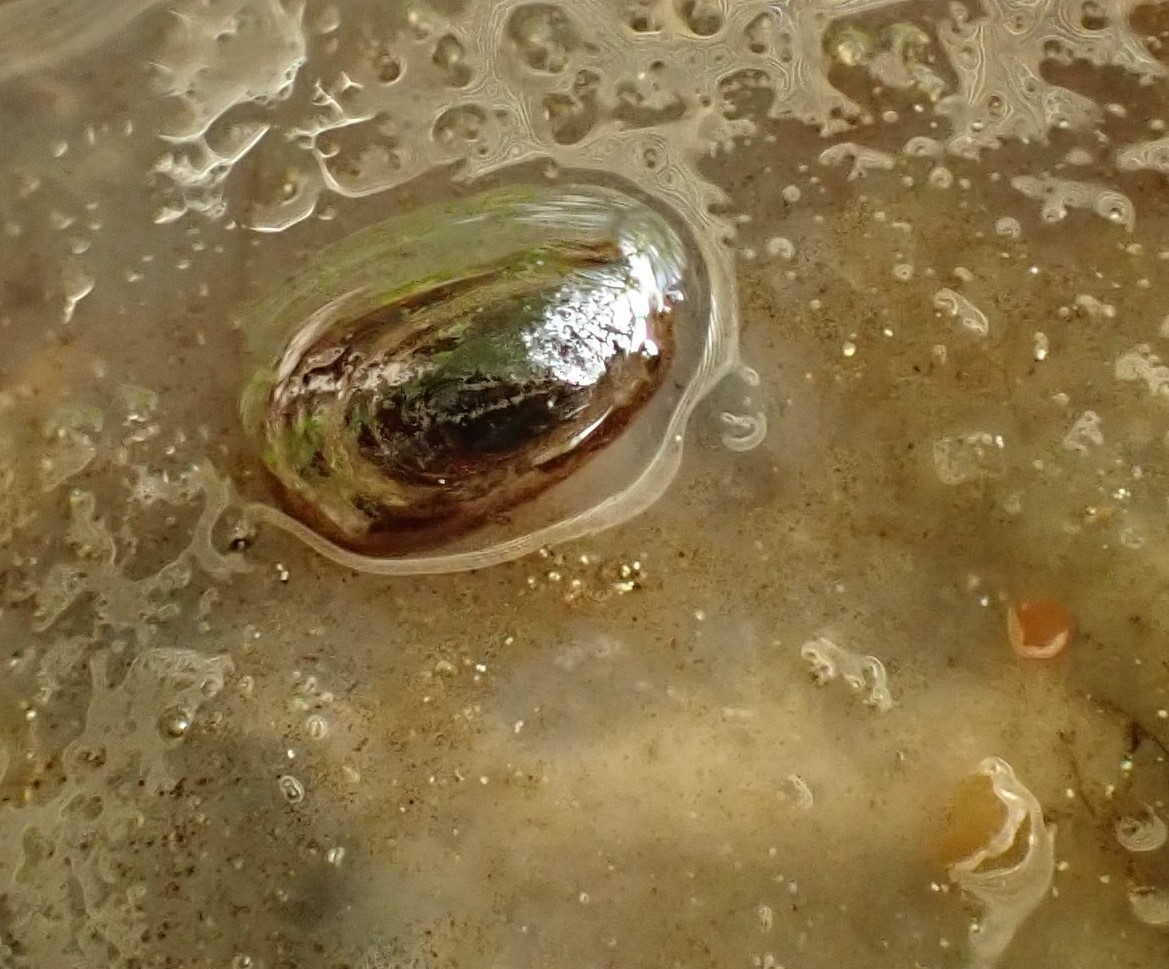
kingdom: Animalia
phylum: Mollusca
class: Gastropoda
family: Acroloxidae
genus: Acroloxus
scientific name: Acroloxus lacustris
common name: Lake limpet
